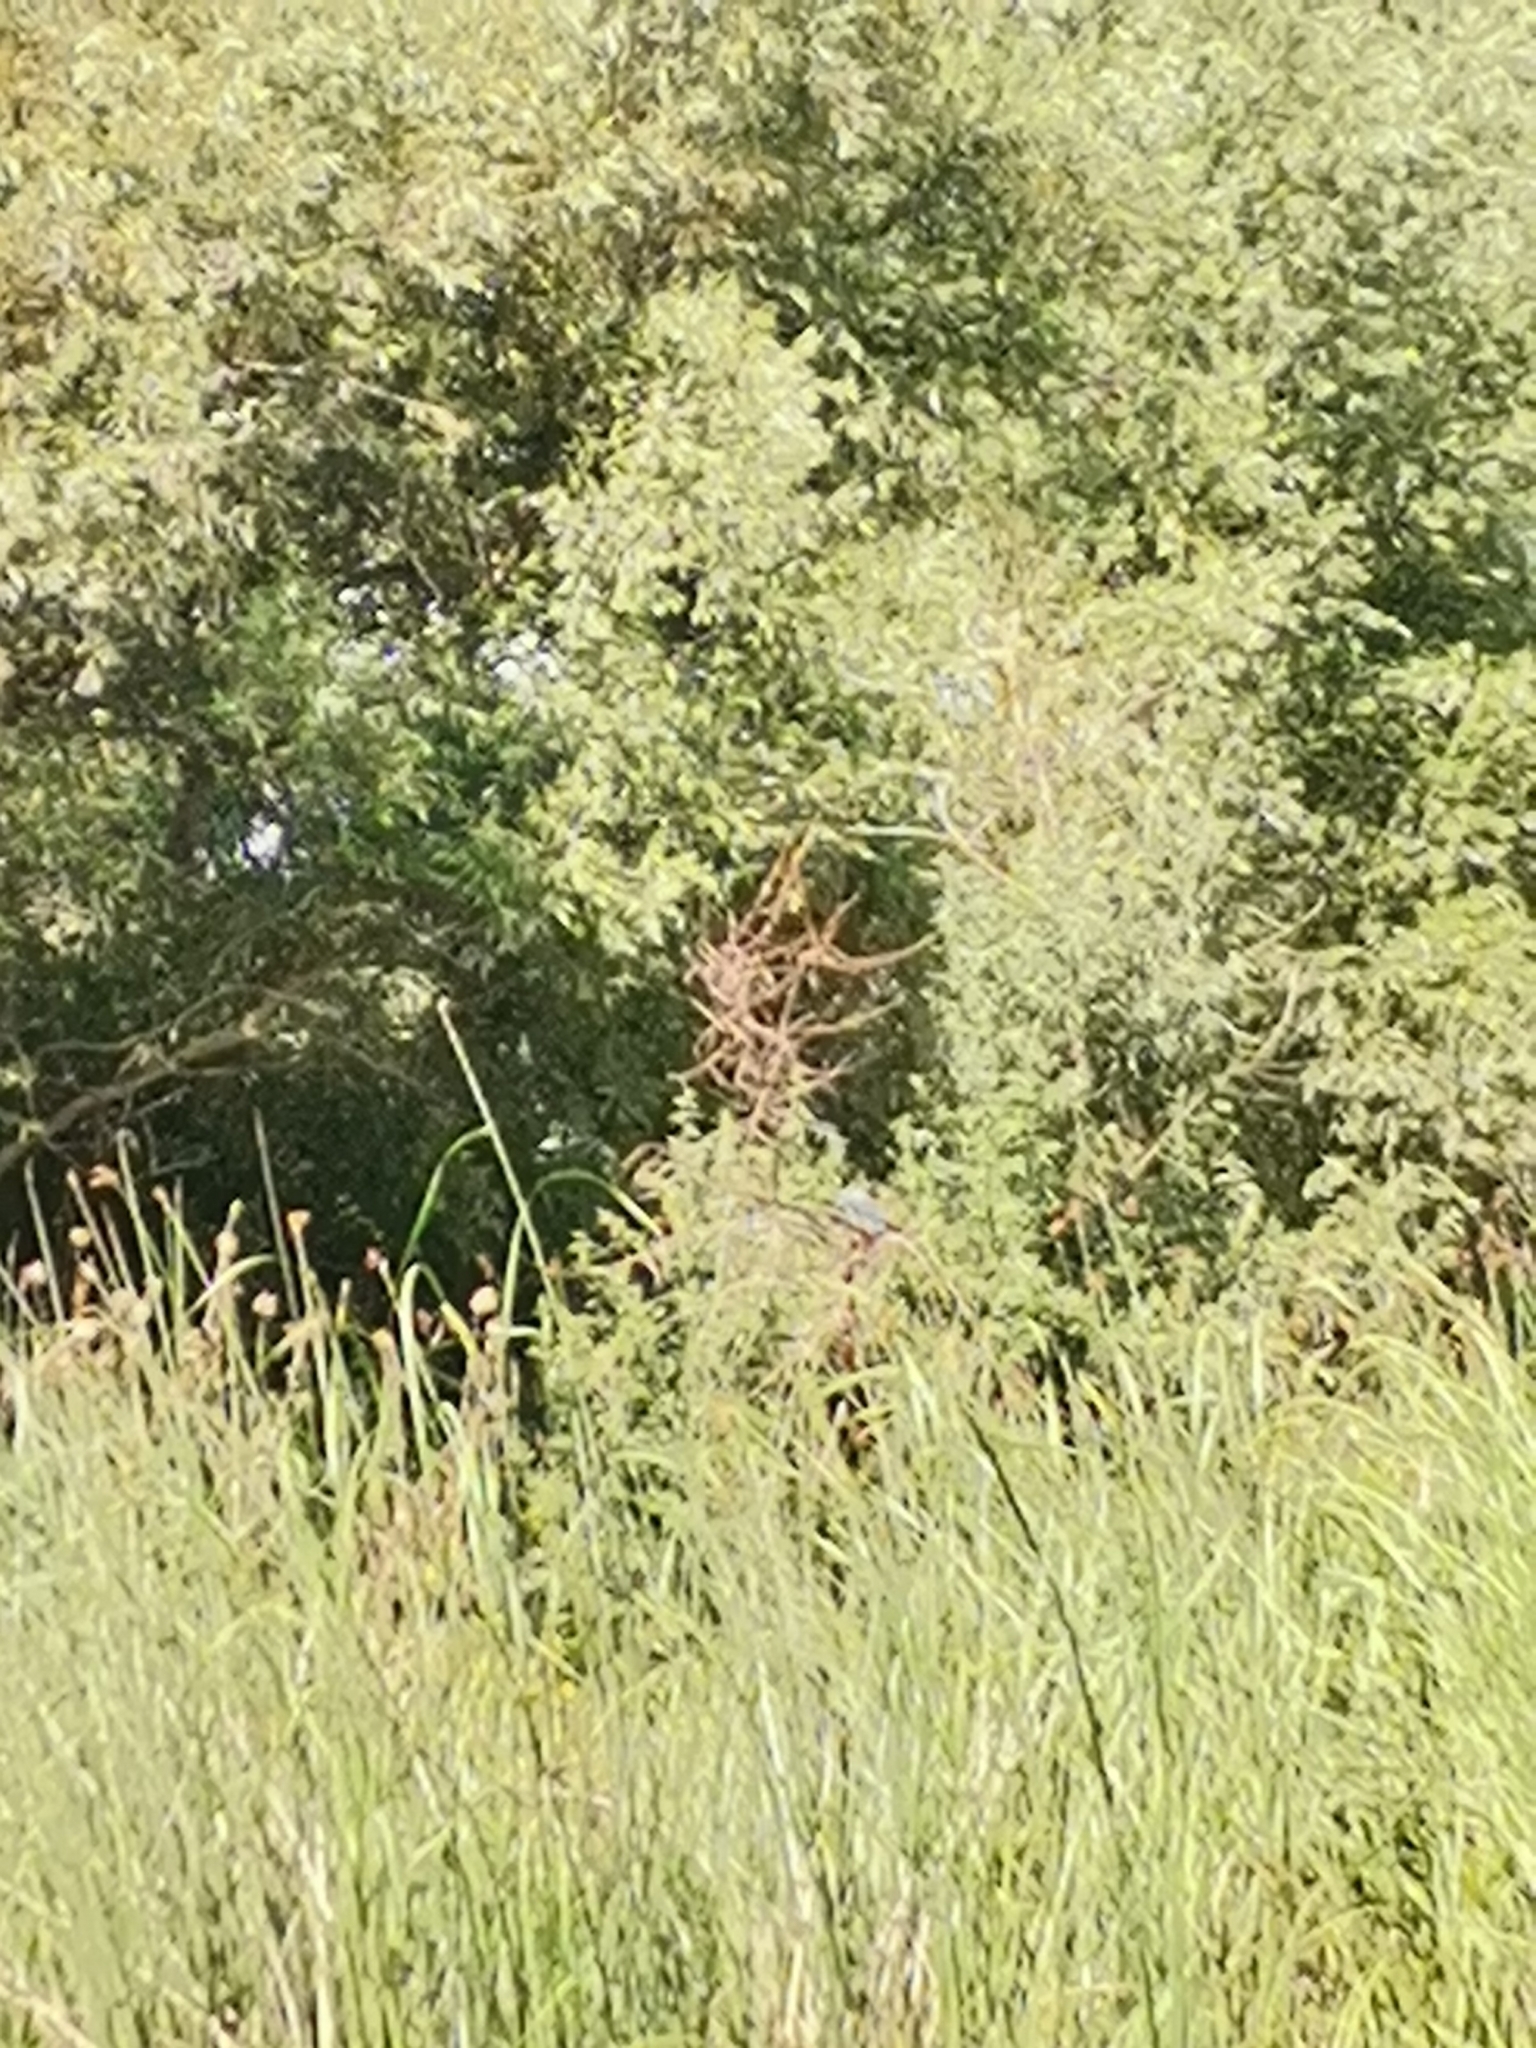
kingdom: Animalia
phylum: Chordata
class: Aves
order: Coraciiformes
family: Coraciidae
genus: Coracias
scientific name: Coracias garrulus
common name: European roller
